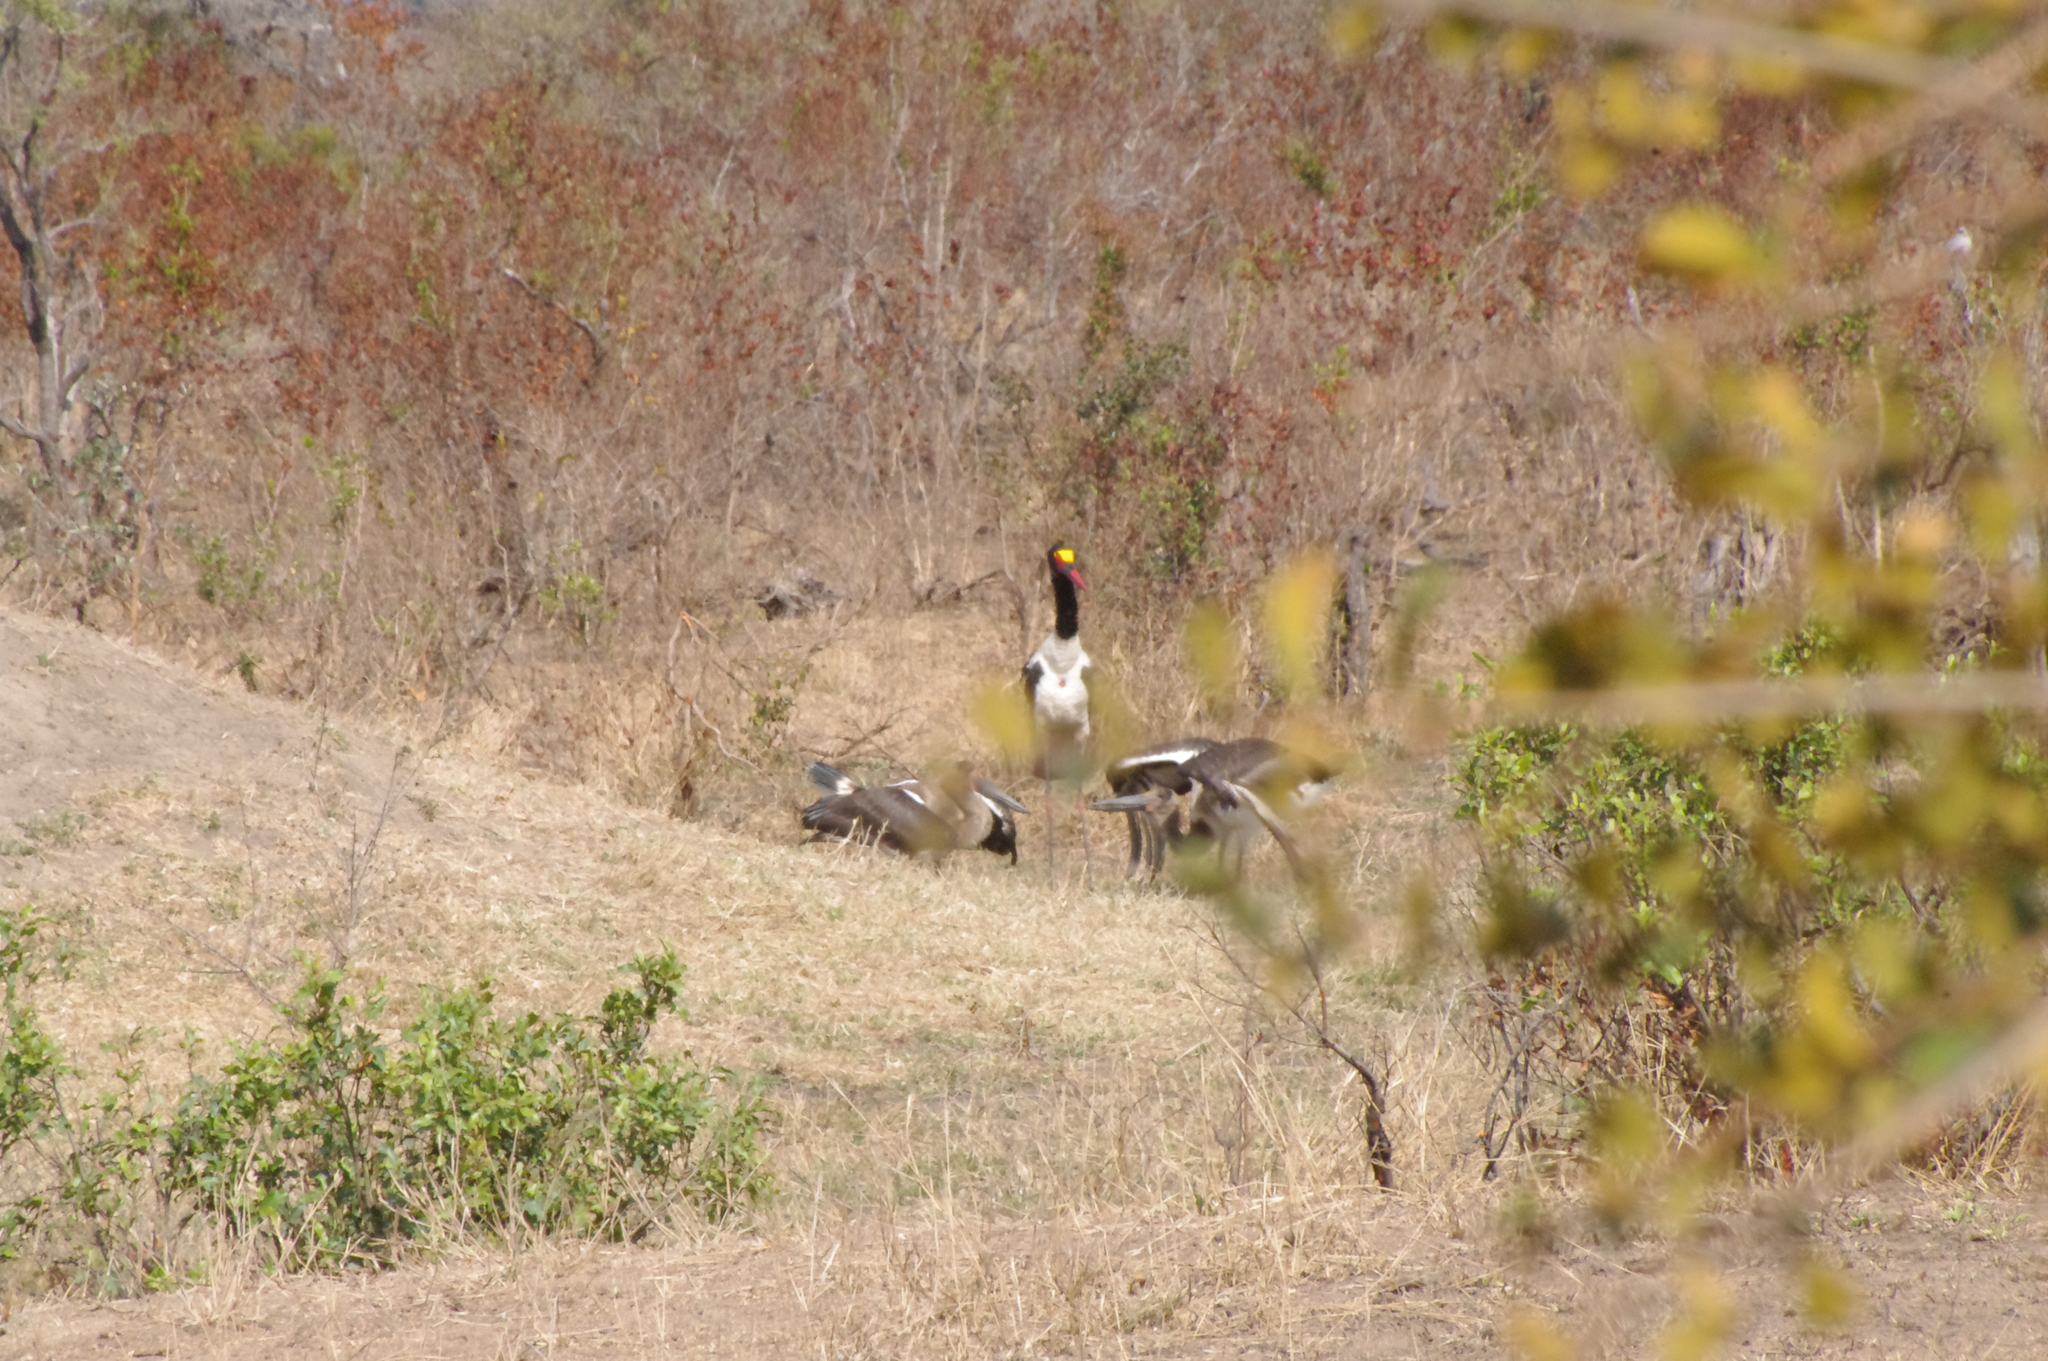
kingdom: Animalia
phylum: Chordata
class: Aves
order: Ciconiiformes
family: Ciconiidae
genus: Ephippiorhynchus
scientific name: Ephippiorhynchus senegalensis
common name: Saddle-billed stork
